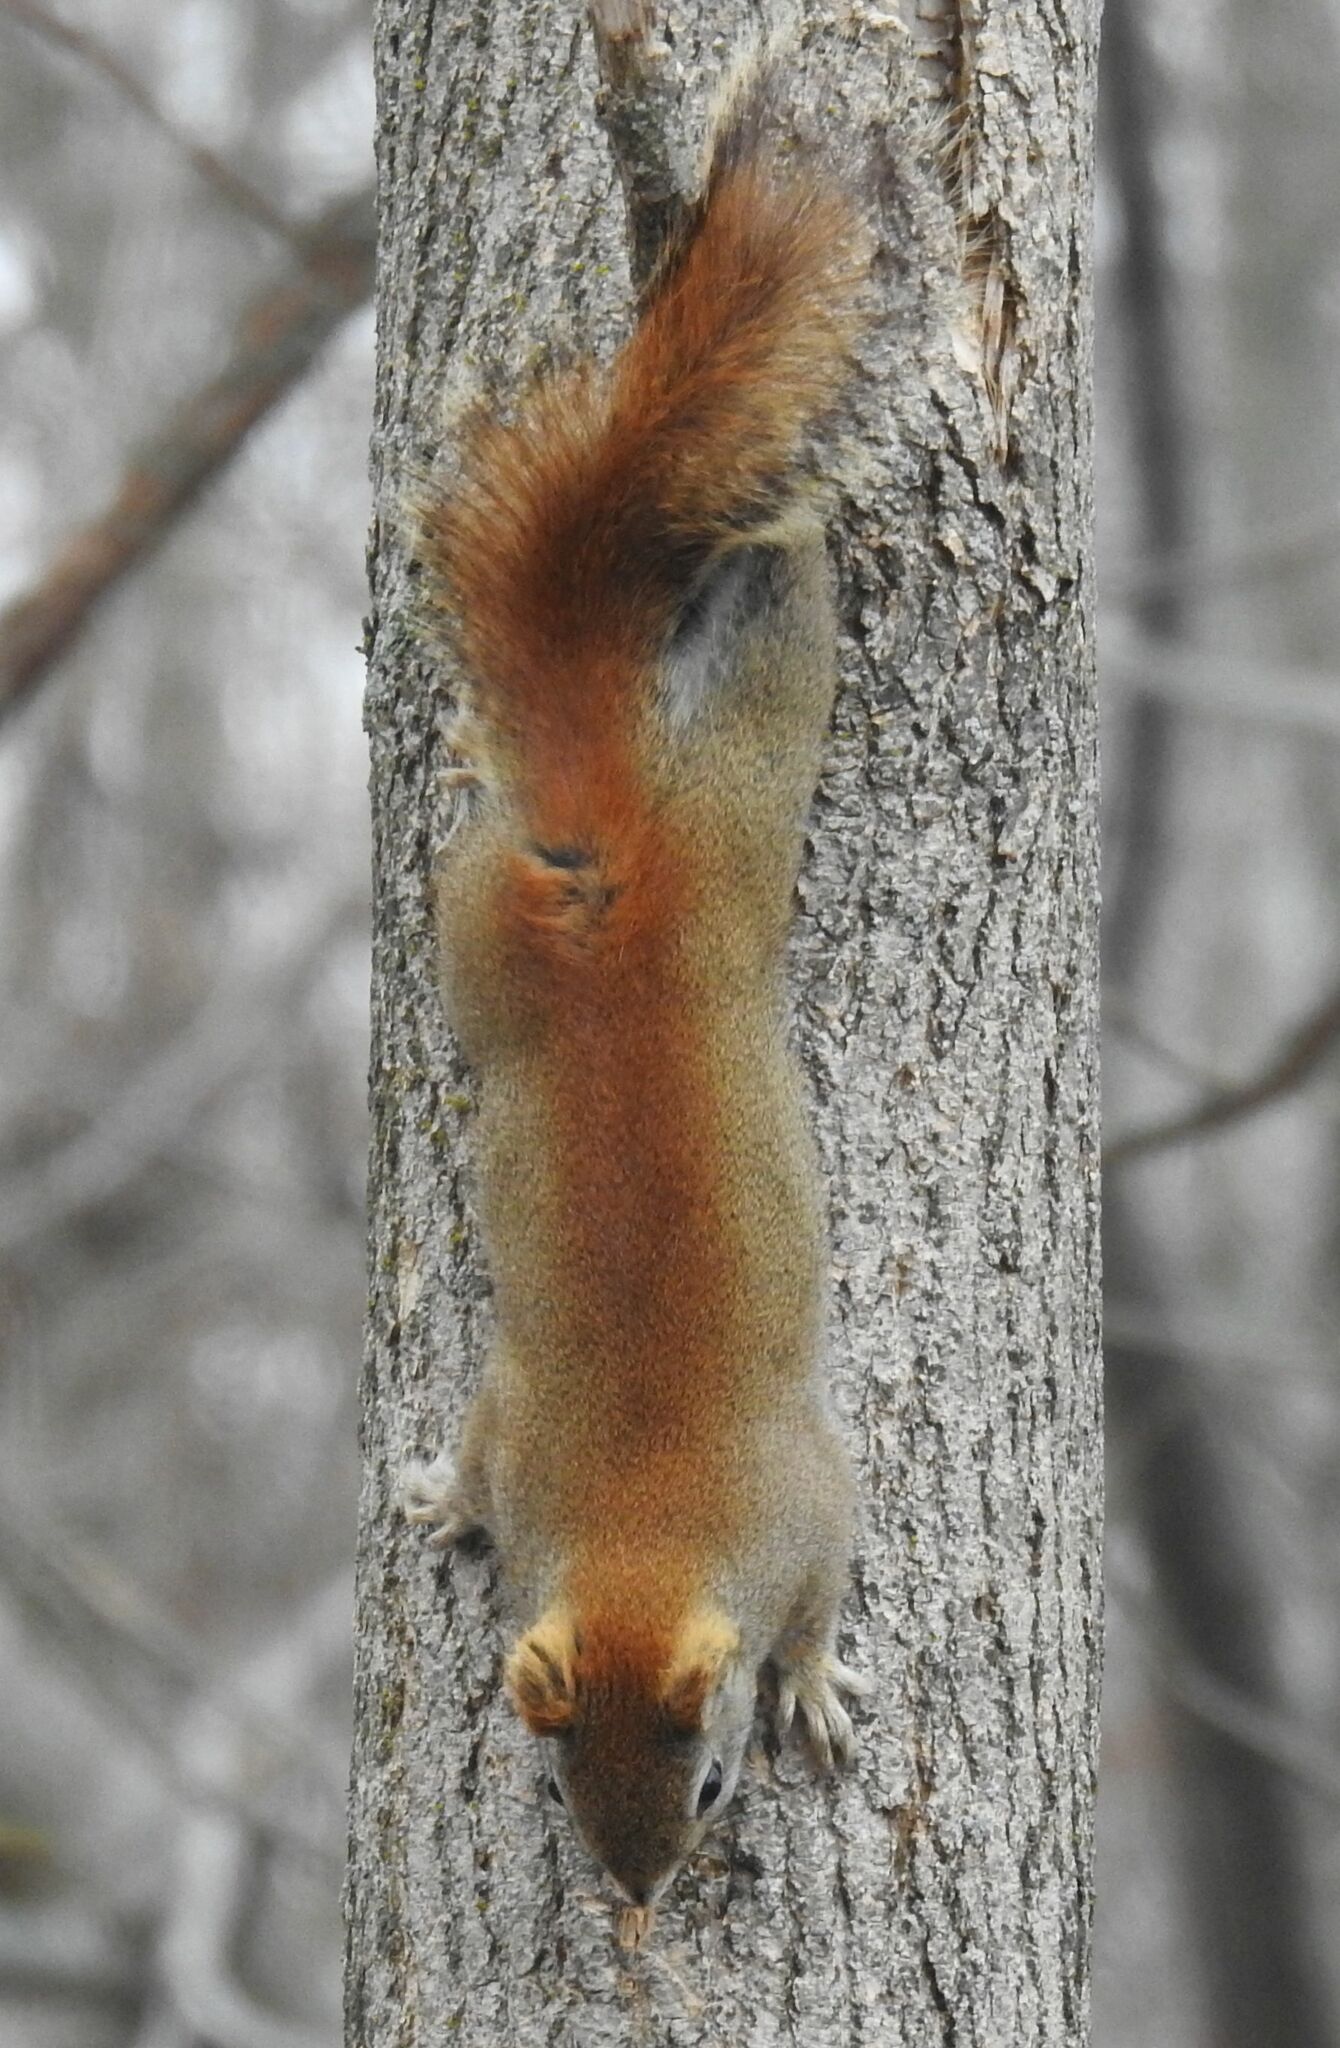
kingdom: Animalia
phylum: Chordata
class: Mammalia
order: Rodentia
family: Sciuridae
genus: Tamiasciurus
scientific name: Tamiasciurus hudsonicus
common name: Red squirrel
